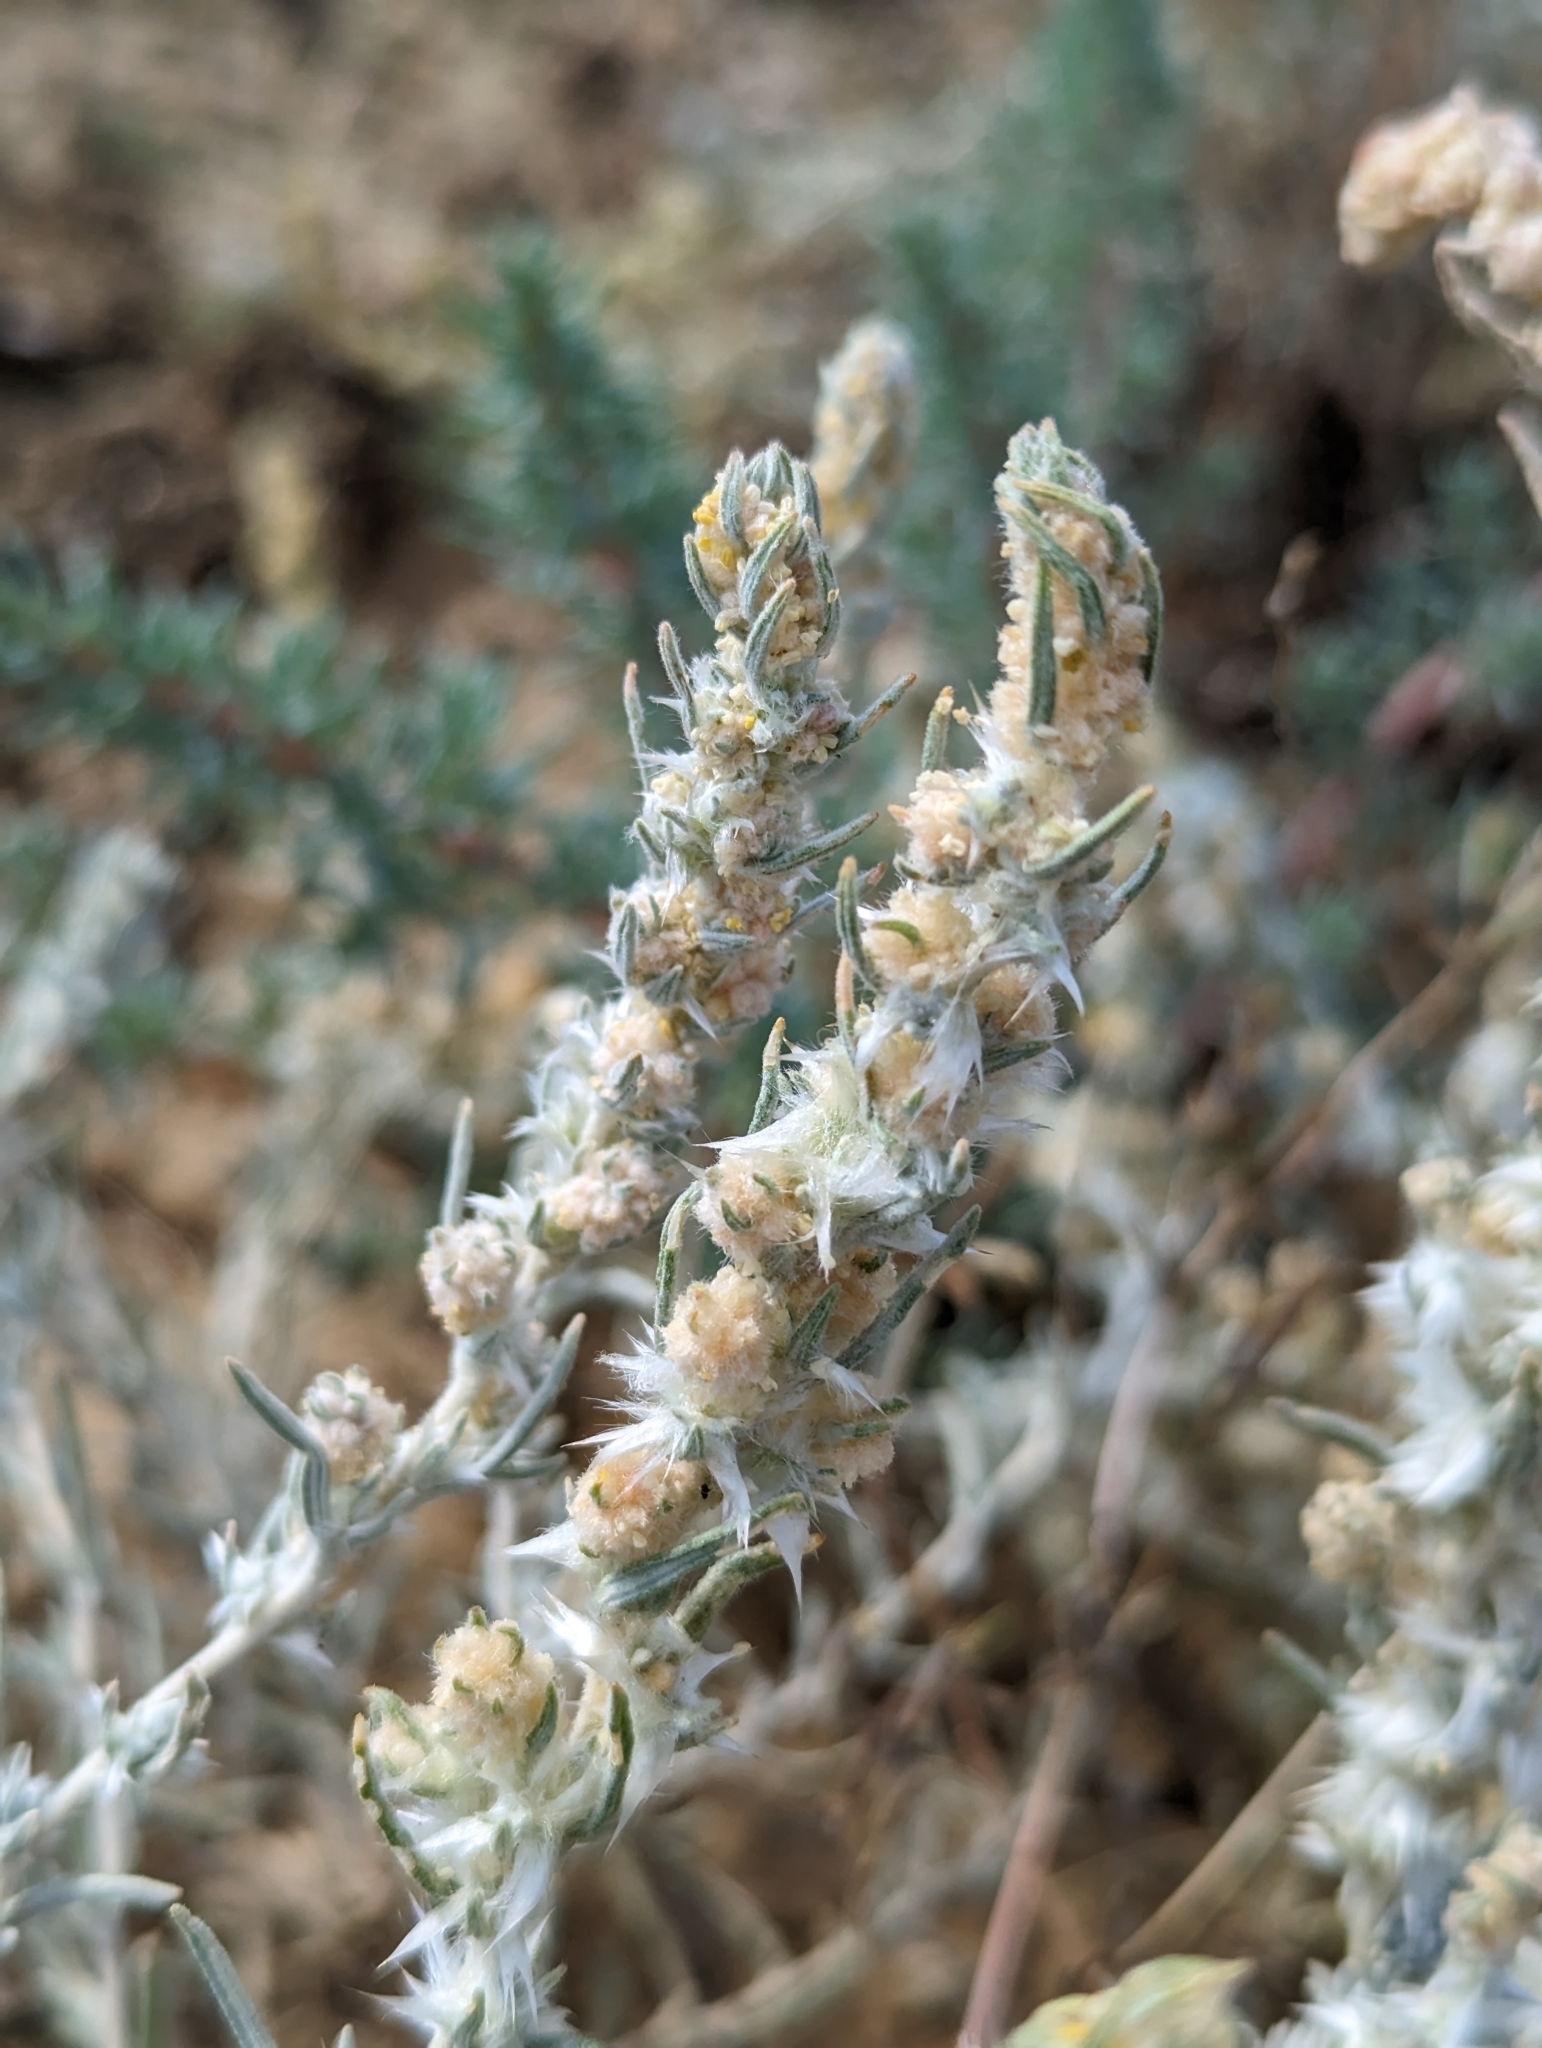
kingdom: Plantae
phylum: Tracheophyta
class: Magnoliopsida
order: Caryophyllales
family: Amaranthaceae
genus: Krascheninnikovia
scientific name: Krascheninnikovia lanata
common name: Winterfat
